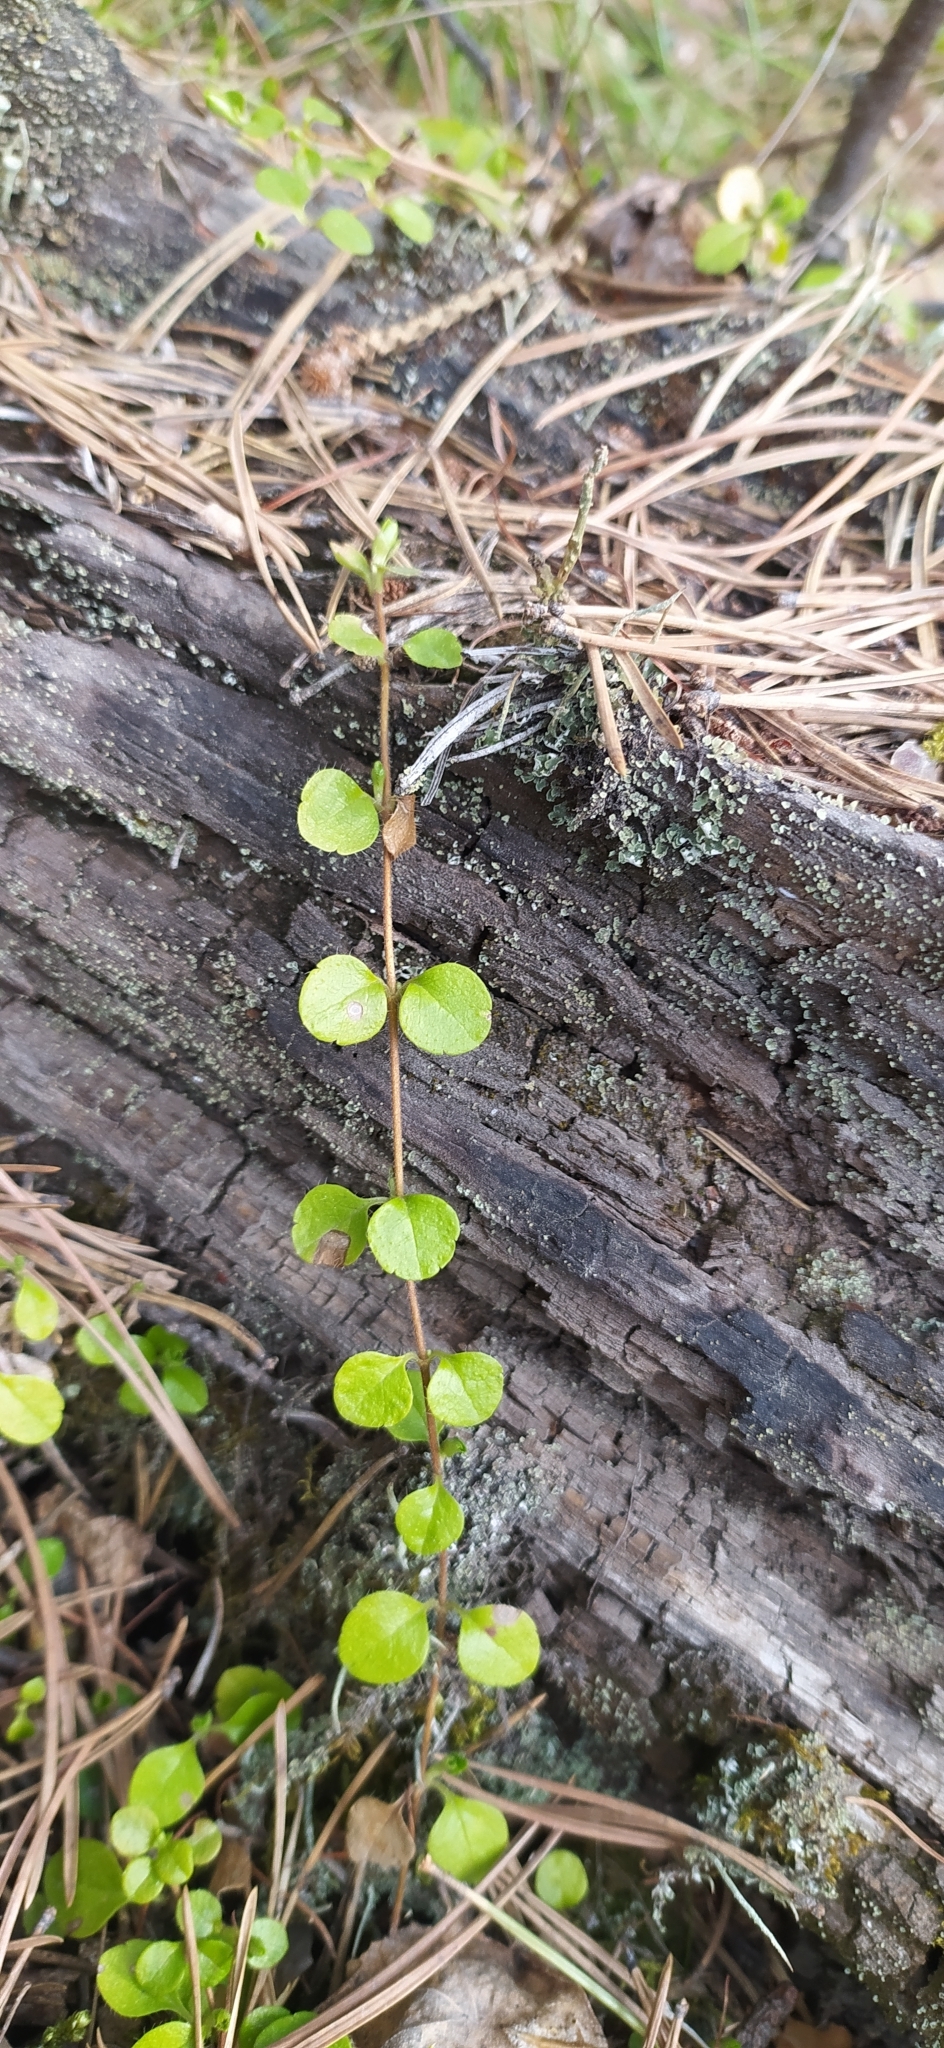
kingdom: Plantae
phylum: Tracheophyta
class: Magnoliopsida
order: Dipsacales
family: Caprifoliaceae
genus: Linnaea
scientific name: Linnaea borealis
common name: Twinflower
